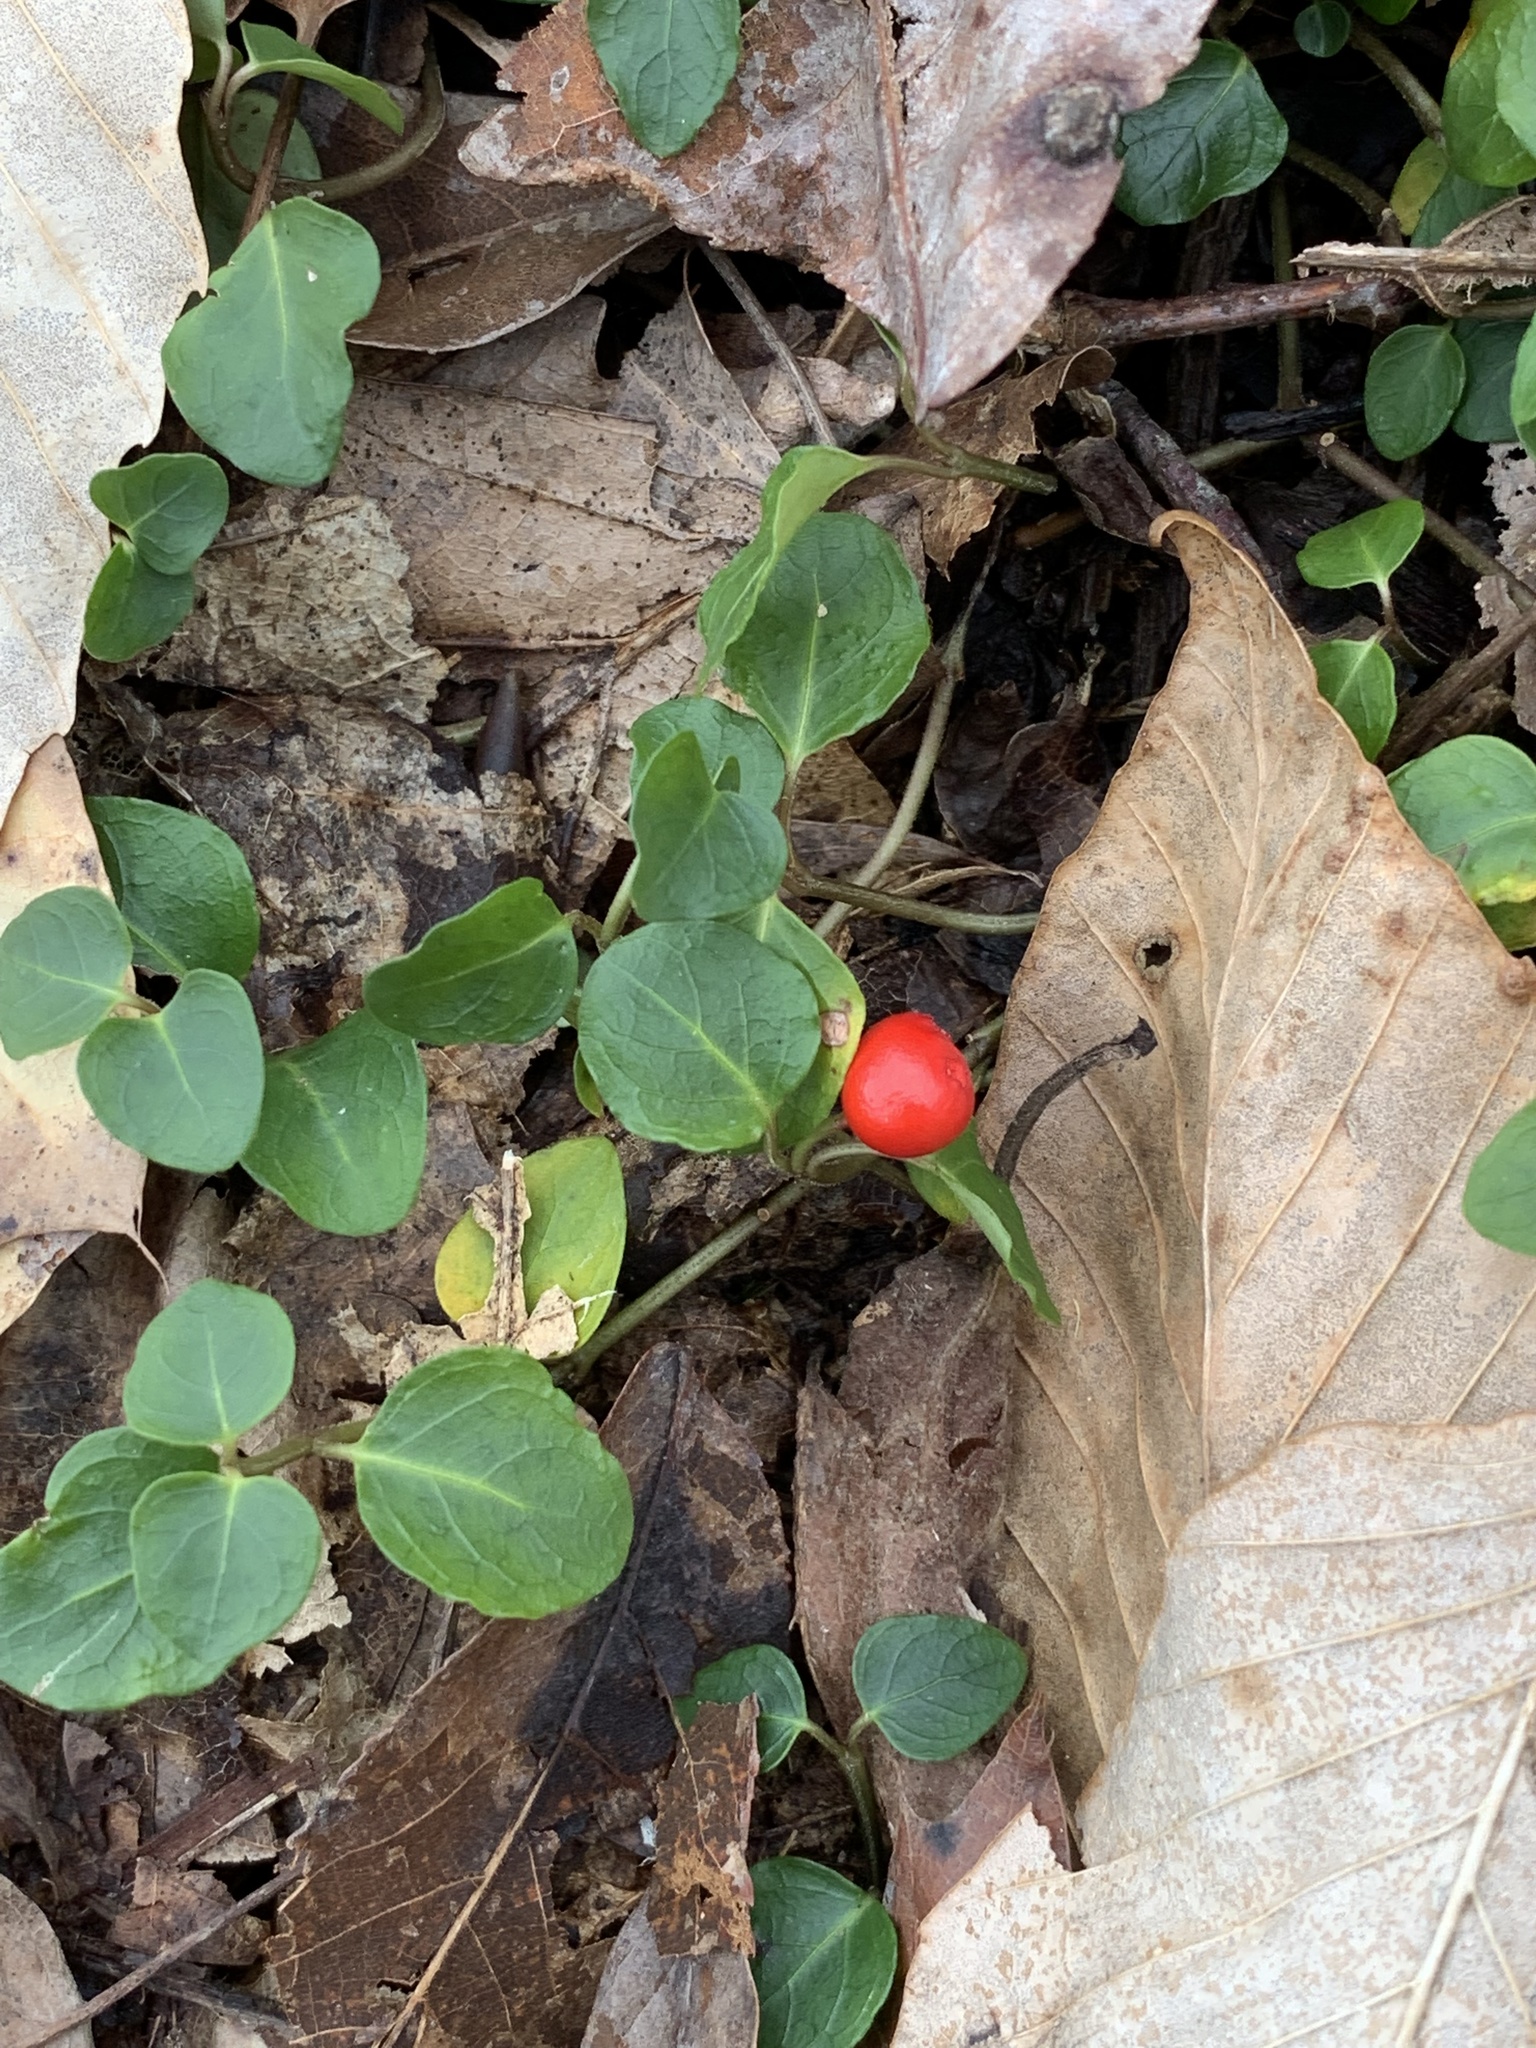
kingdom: Plantae
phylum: Tracheophyta
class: Magnoliopsida
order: Gentianales
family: Rubiaceae
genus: Mitchella
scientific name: Mitchella repens
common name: Partridge-berry
